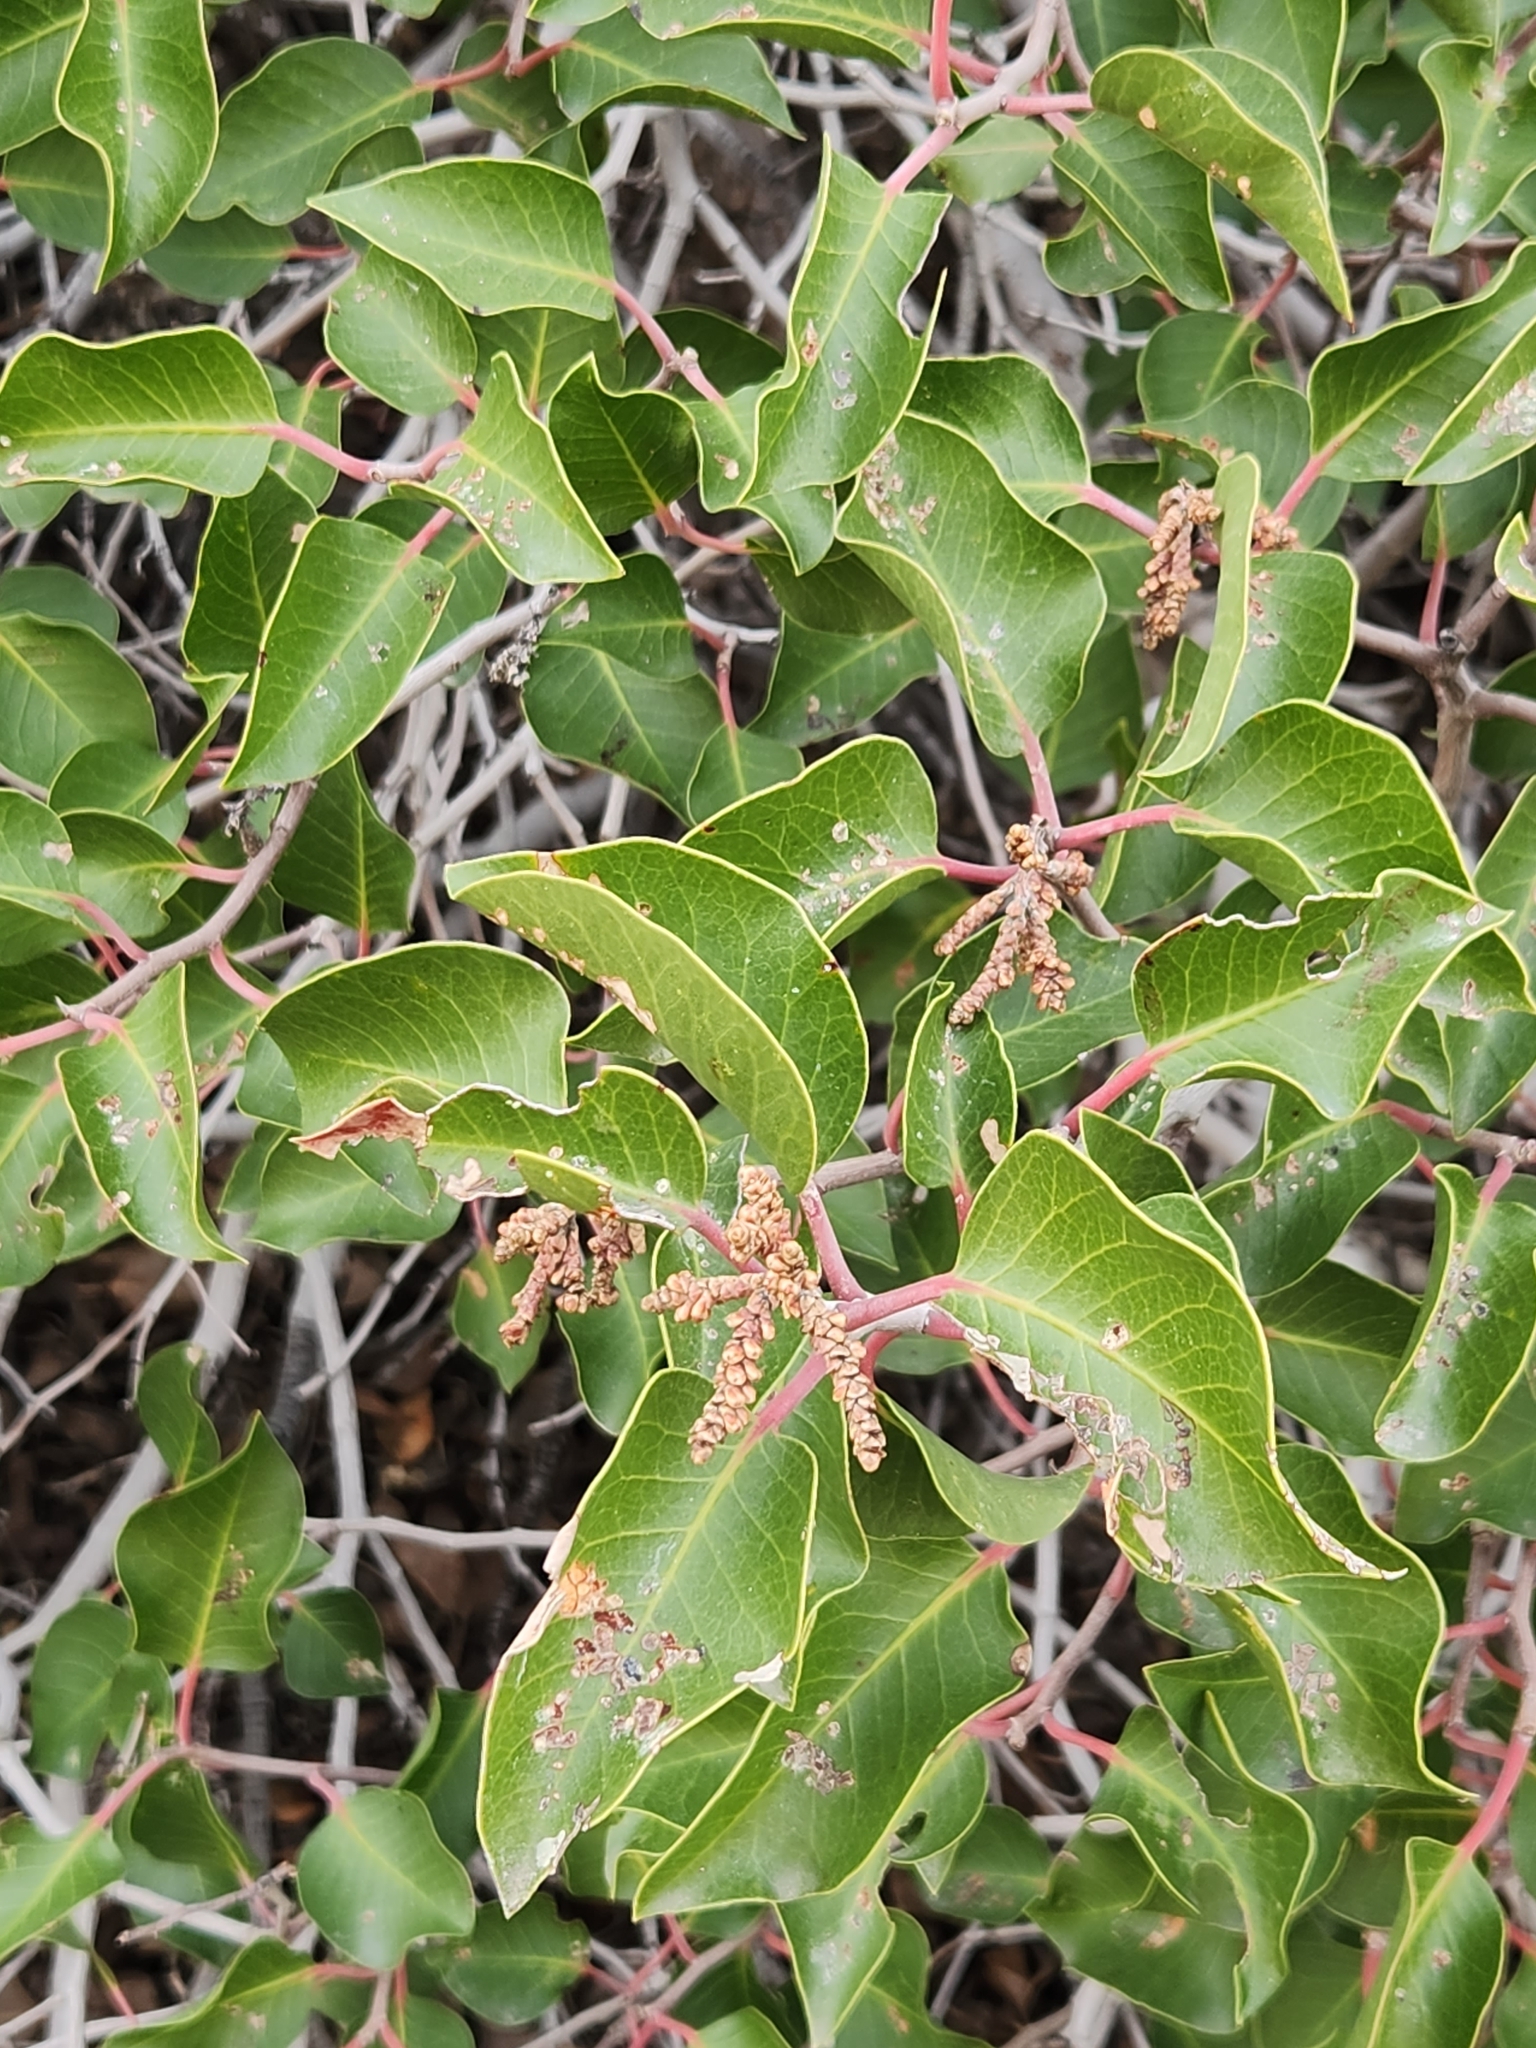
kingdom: Plantae
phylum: Tracheophyta
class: Magnoliopsida
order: Sapindales
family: Anacardiaceae
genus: Rhus
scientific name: Rhus ovata
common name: Sugar sumac
